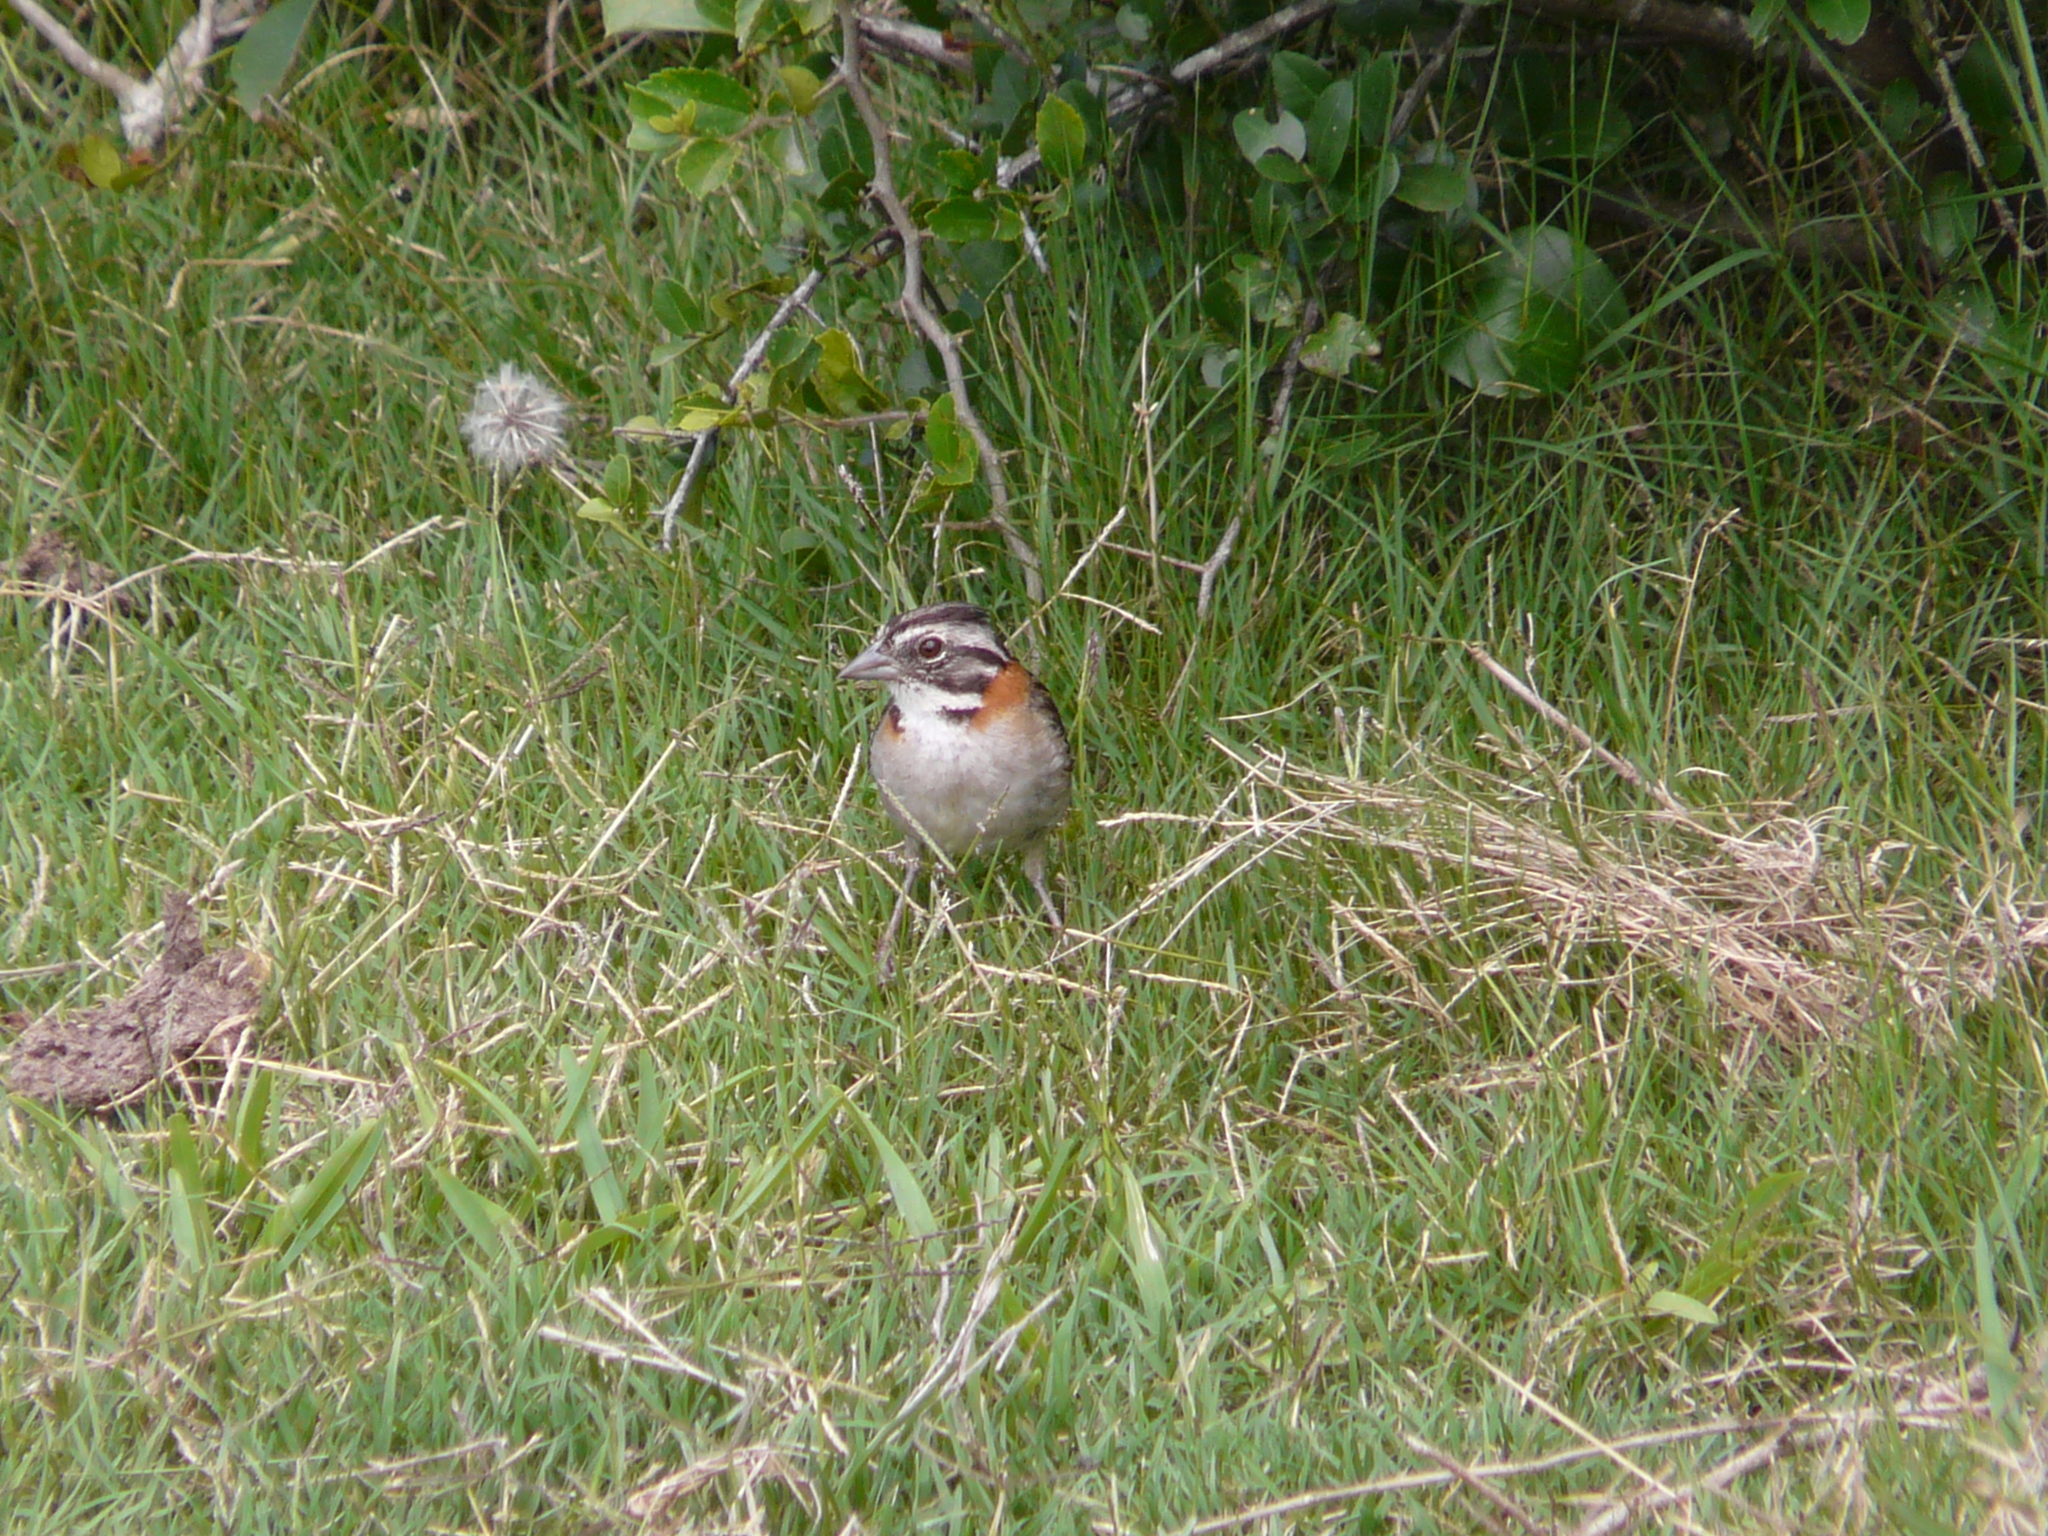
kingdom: Animalia
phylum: Chordata
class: Aves
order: Passeriformes
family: Passerellidae
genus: Zonotrichia
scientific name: Zonotrichia capensis
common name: Rufous-collared sparrow
